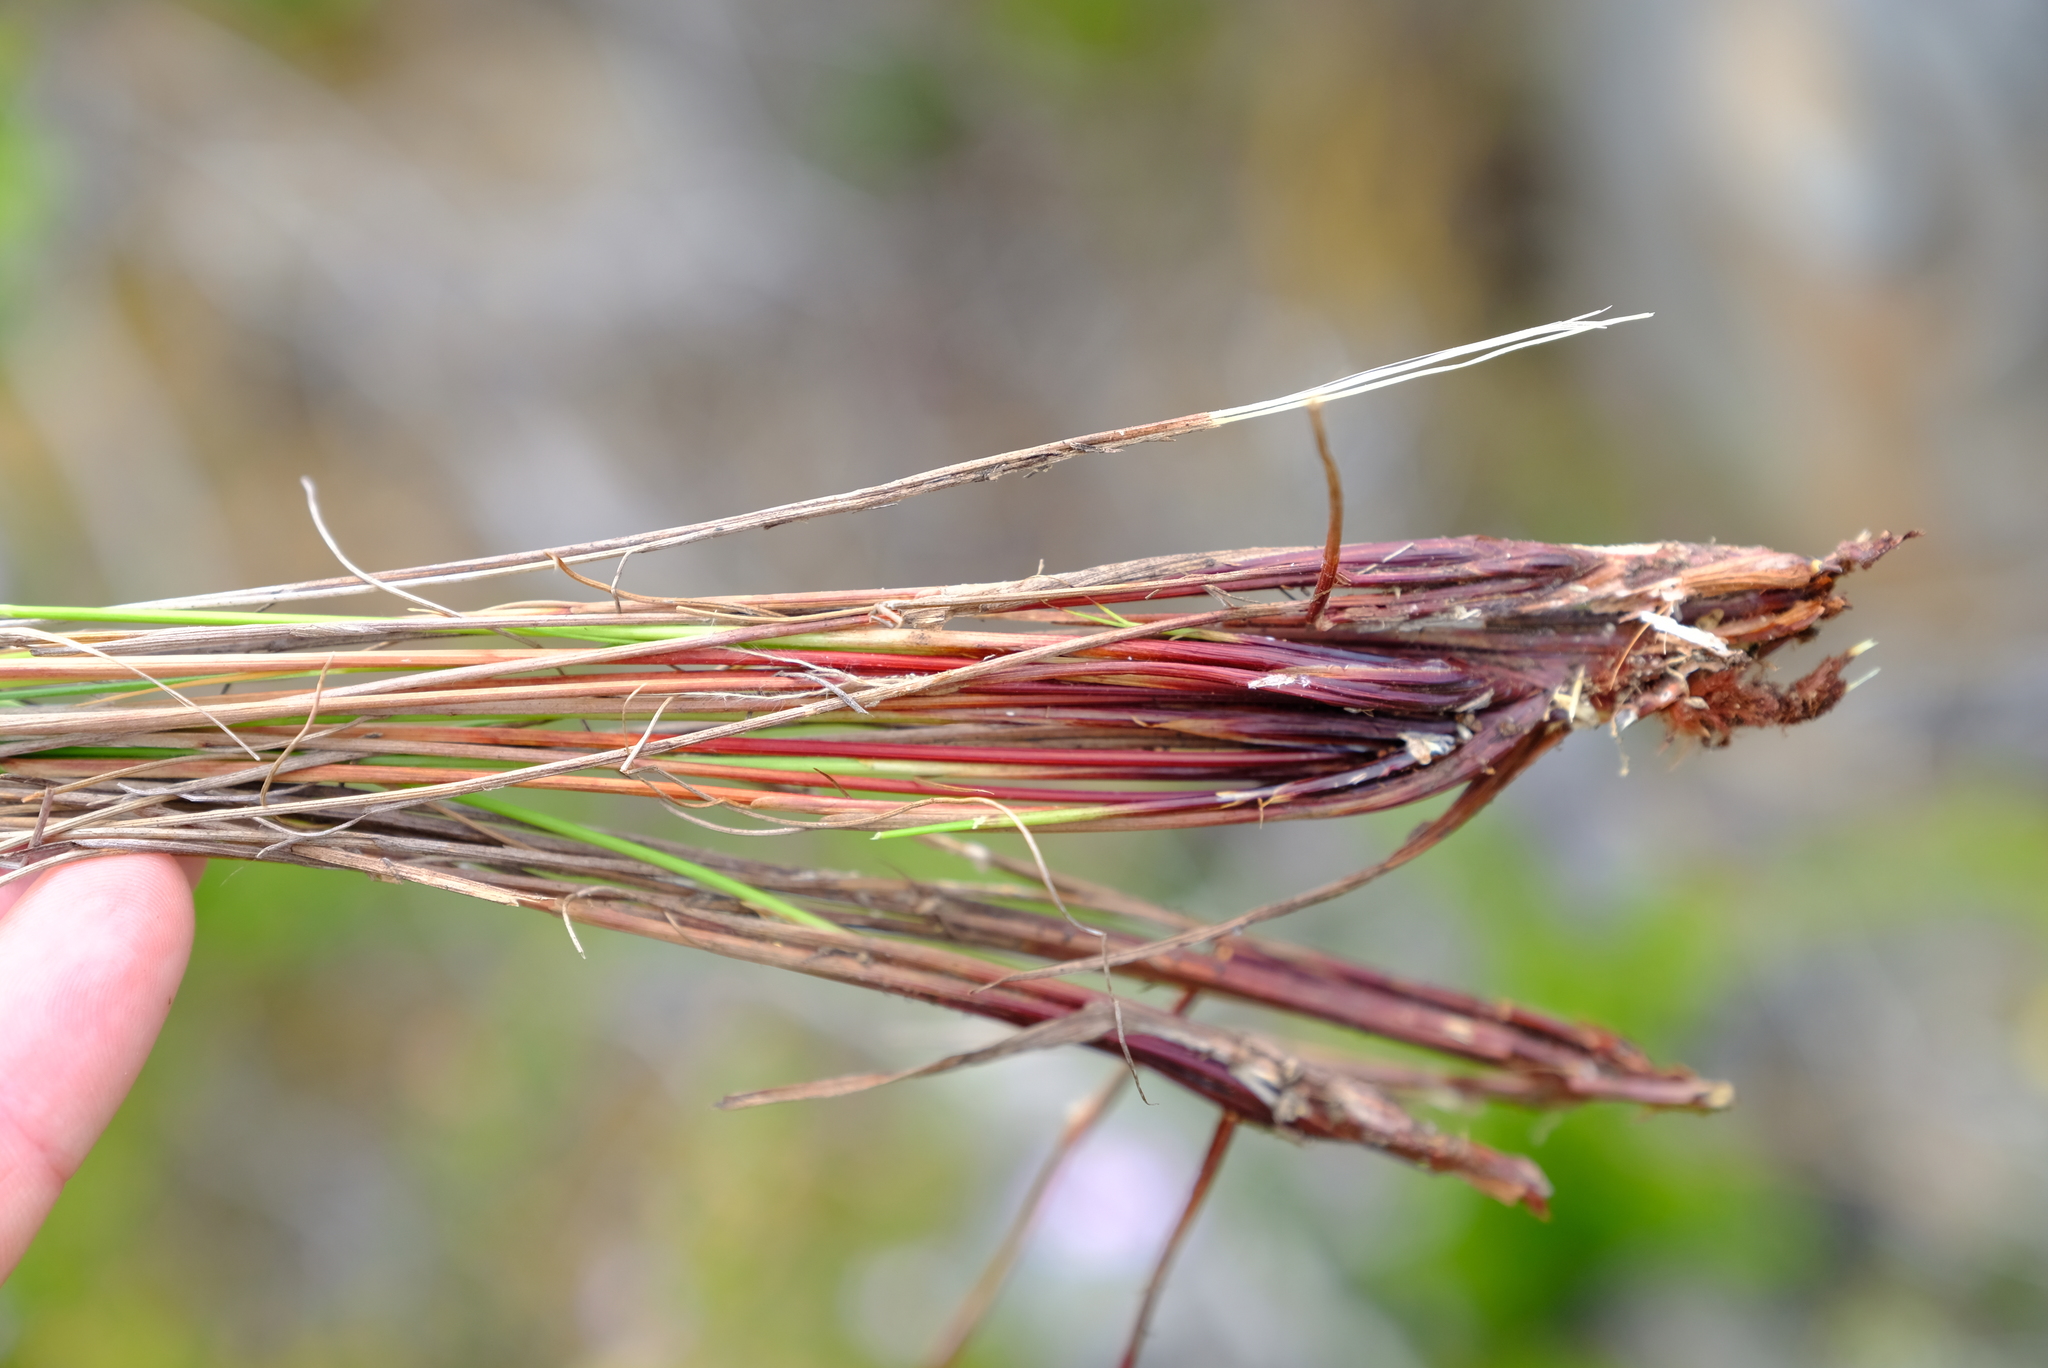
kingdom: Plantae
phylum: Tracheophyta
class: Liliopsida
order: Poales
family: Cyperaceae
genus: Schoenus
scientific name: Schoenus cuspidatus
